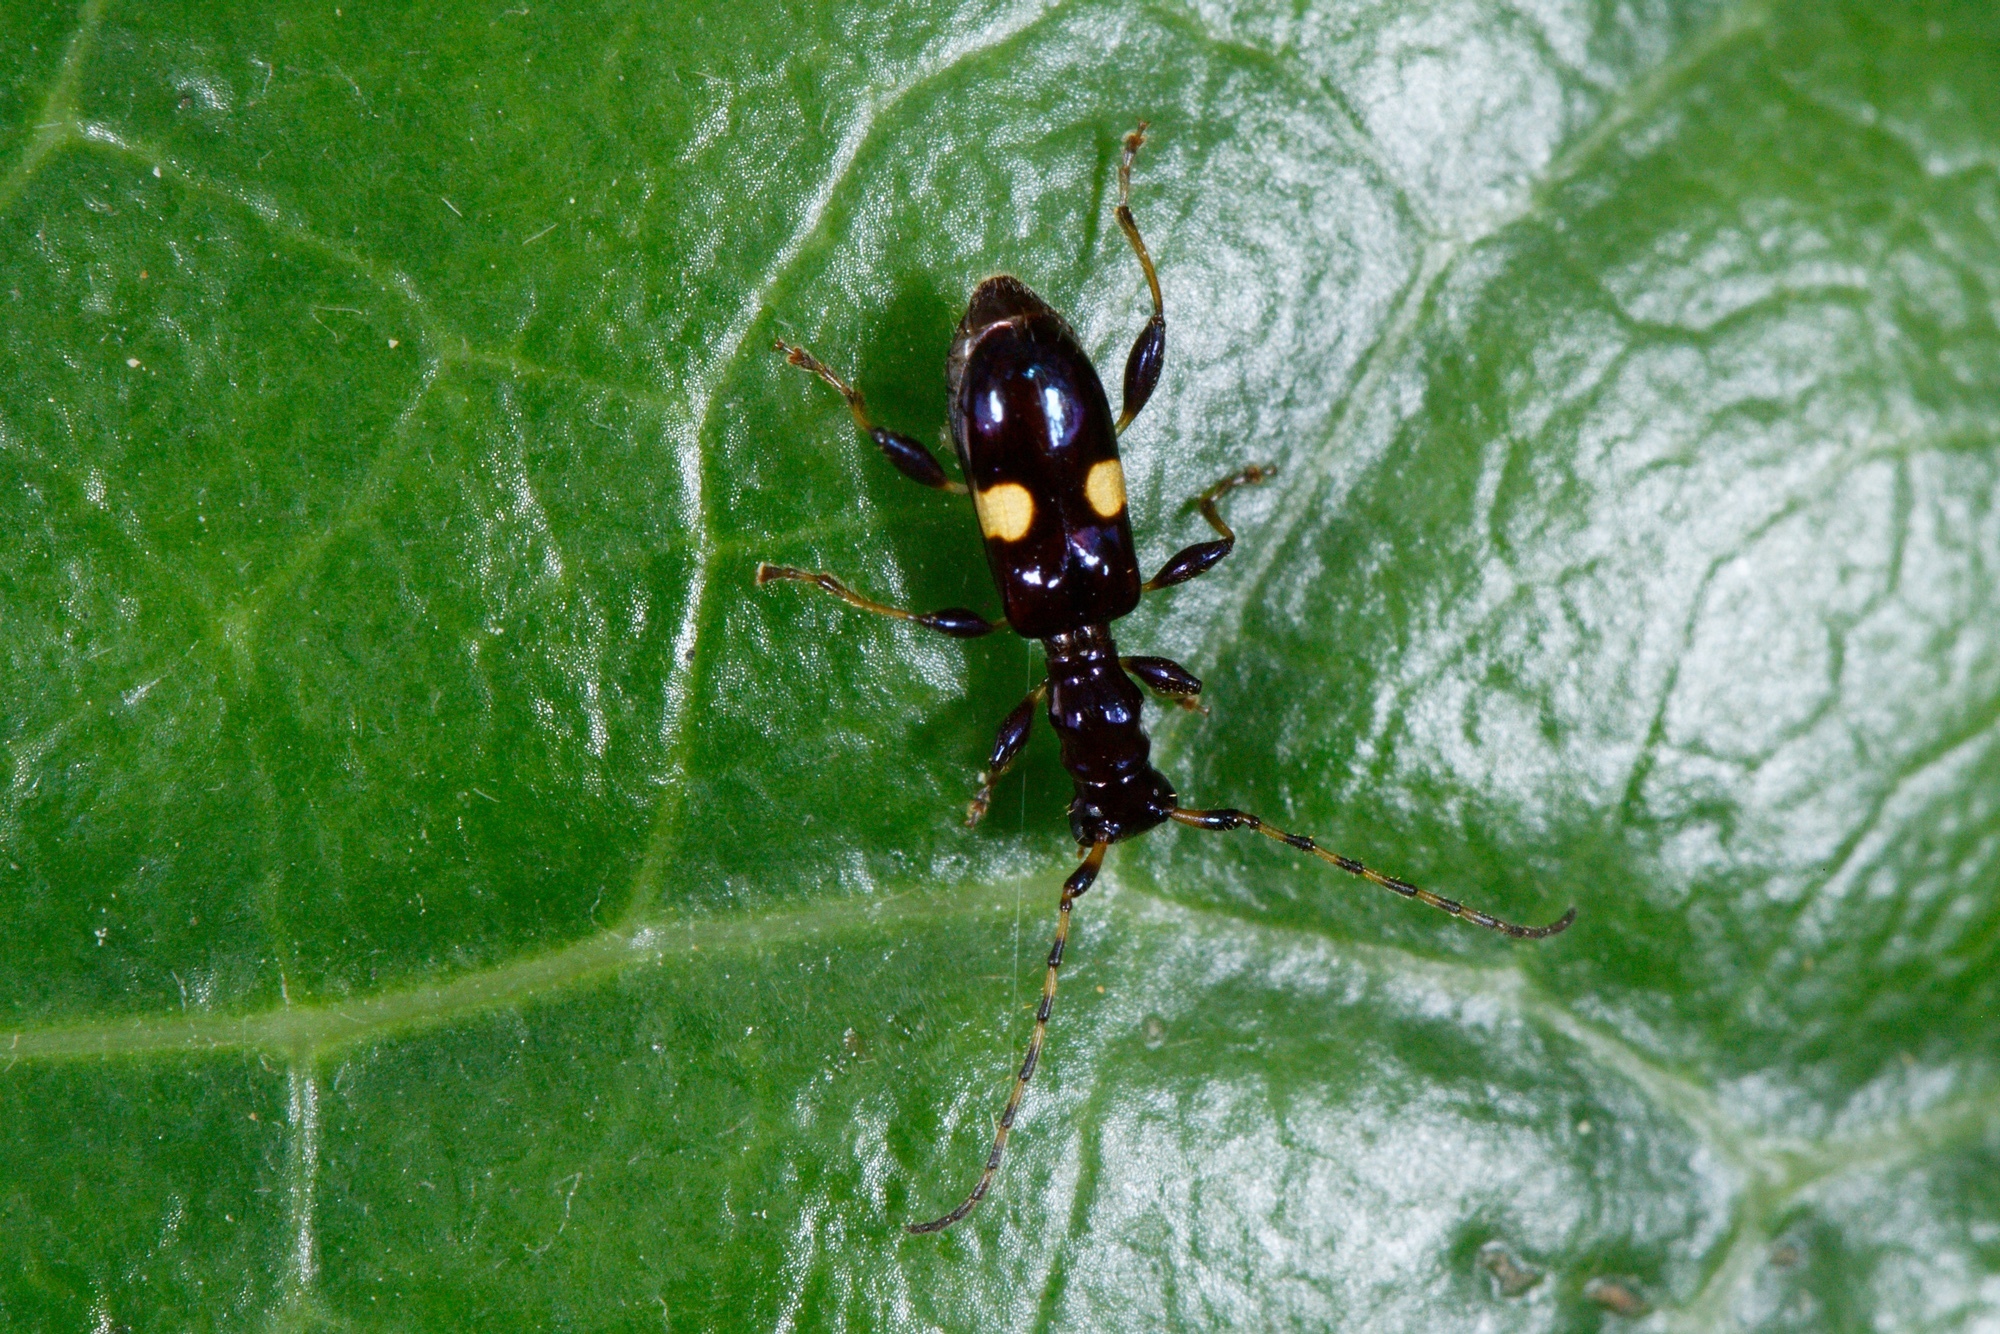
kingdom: Animalia
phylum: Arthropoda
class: Insecta
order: Coleoptera
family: Cerambycidae
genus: Zorion
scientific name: Zorion guttigerum
